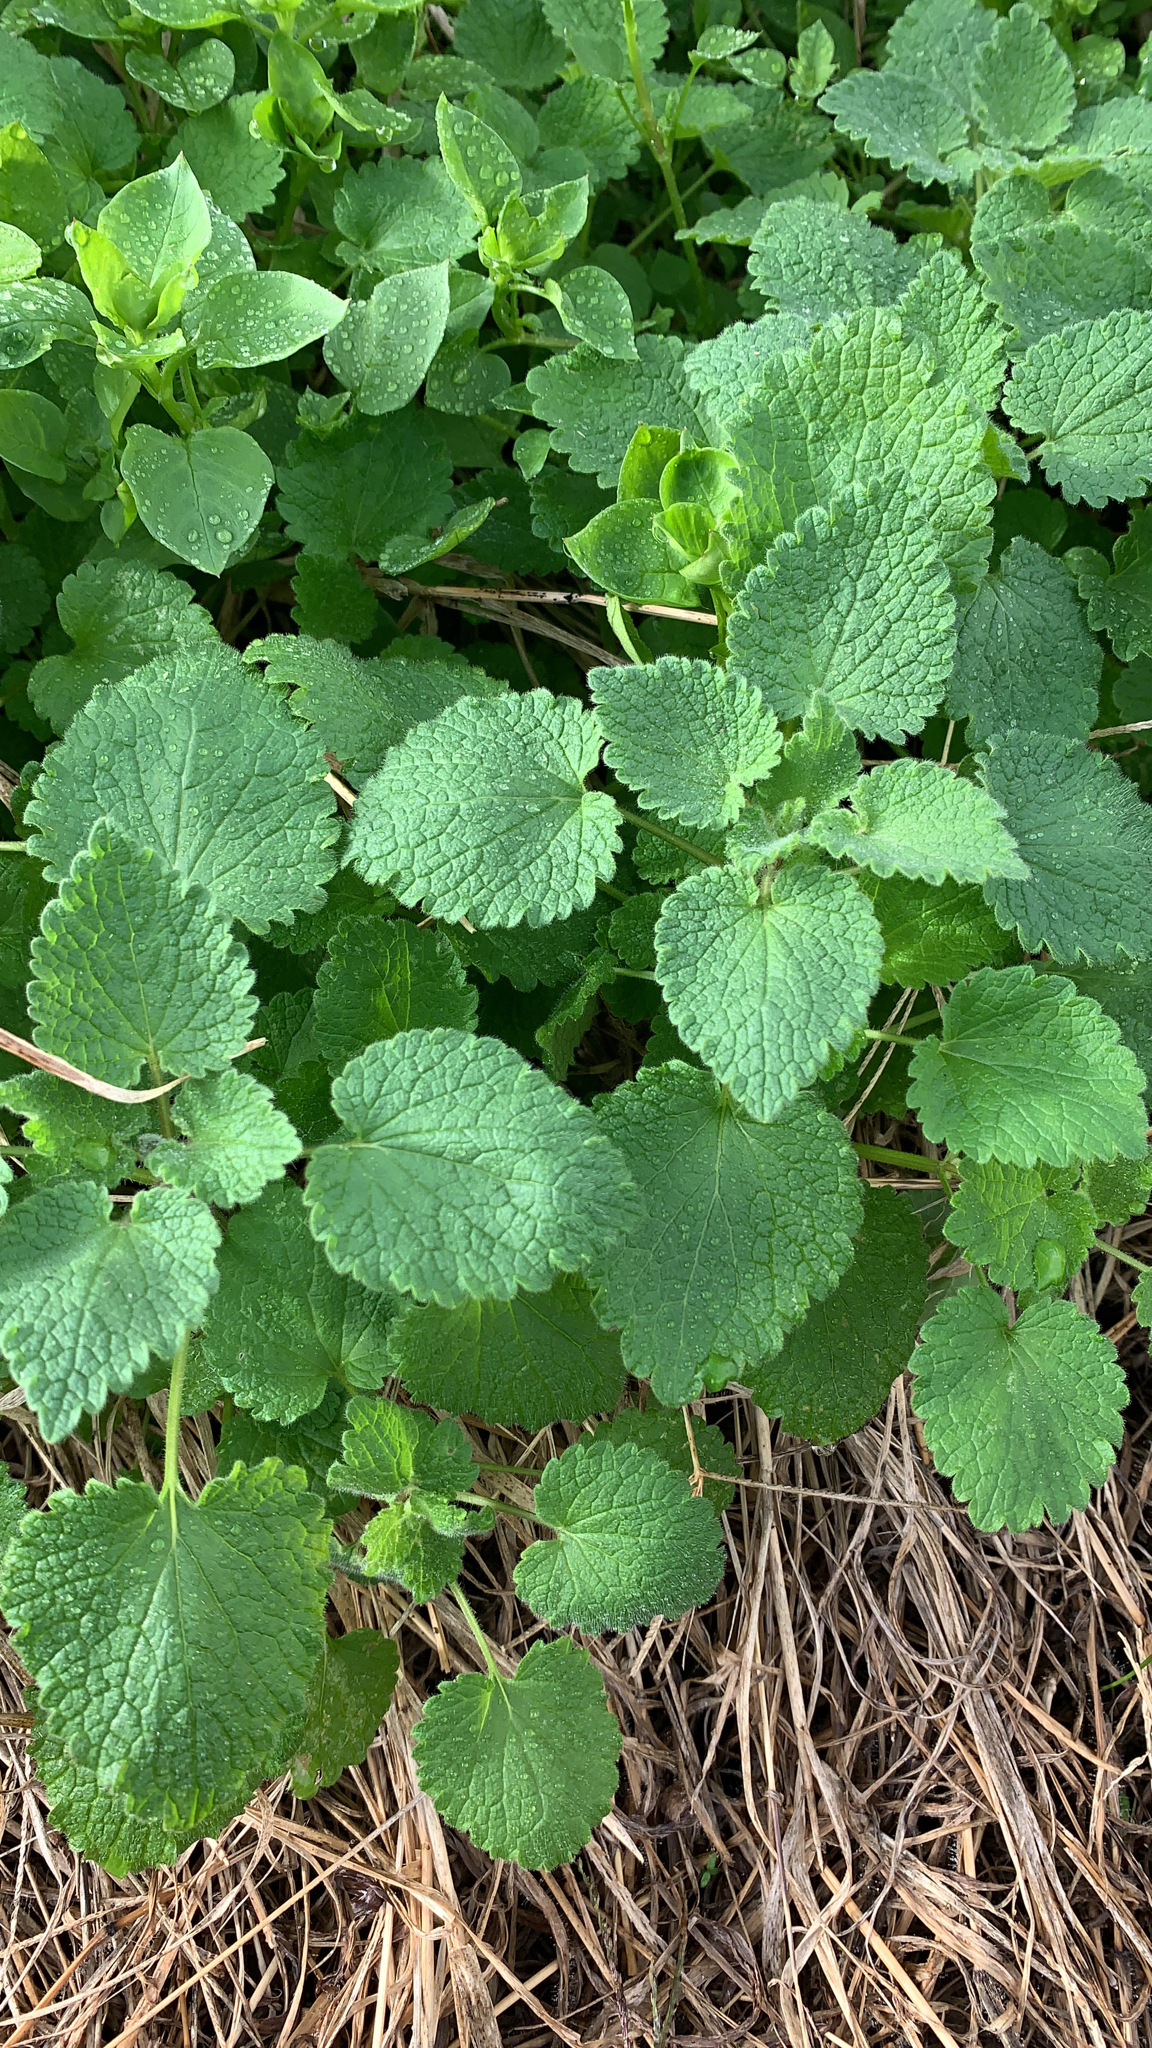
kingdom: Plantae
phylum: Tracheophyta
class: Magnoliopsida
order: Lamiales
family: Lamiaceae
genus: Lamium
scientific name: Lamium purpureum
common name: Red dead-nettle
